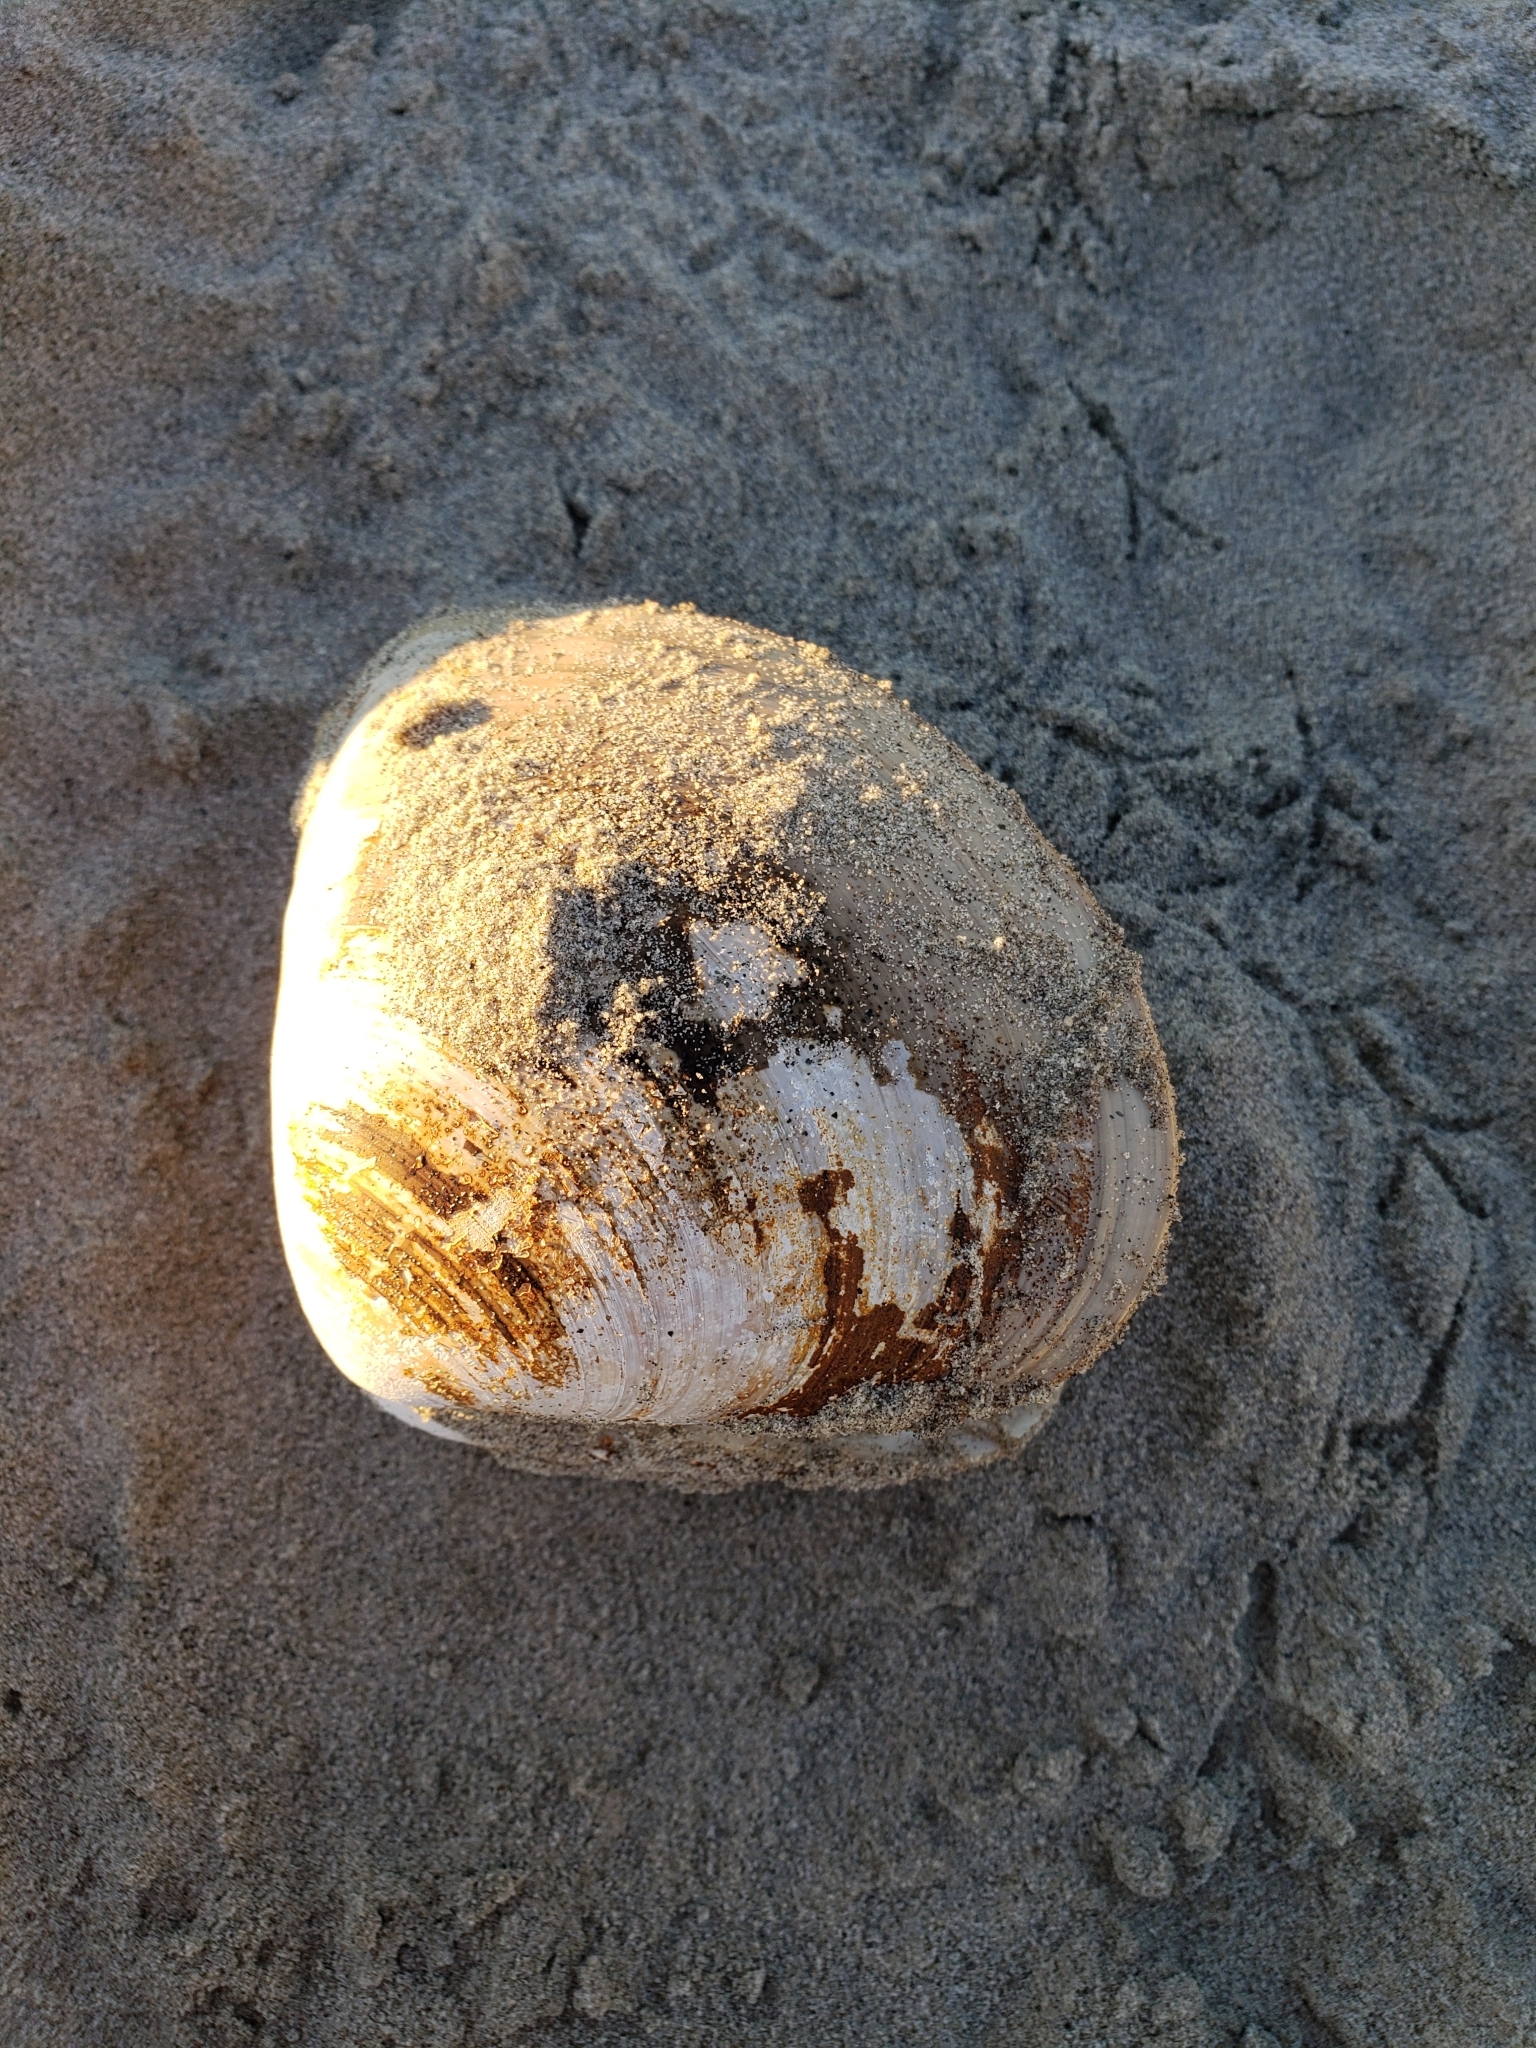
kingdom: Animalia
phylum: Mollusca
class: Bivalvia
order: Venerida
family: Veneridae
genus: Tivela
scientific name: Tivela stultorum
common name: Pismo clam
